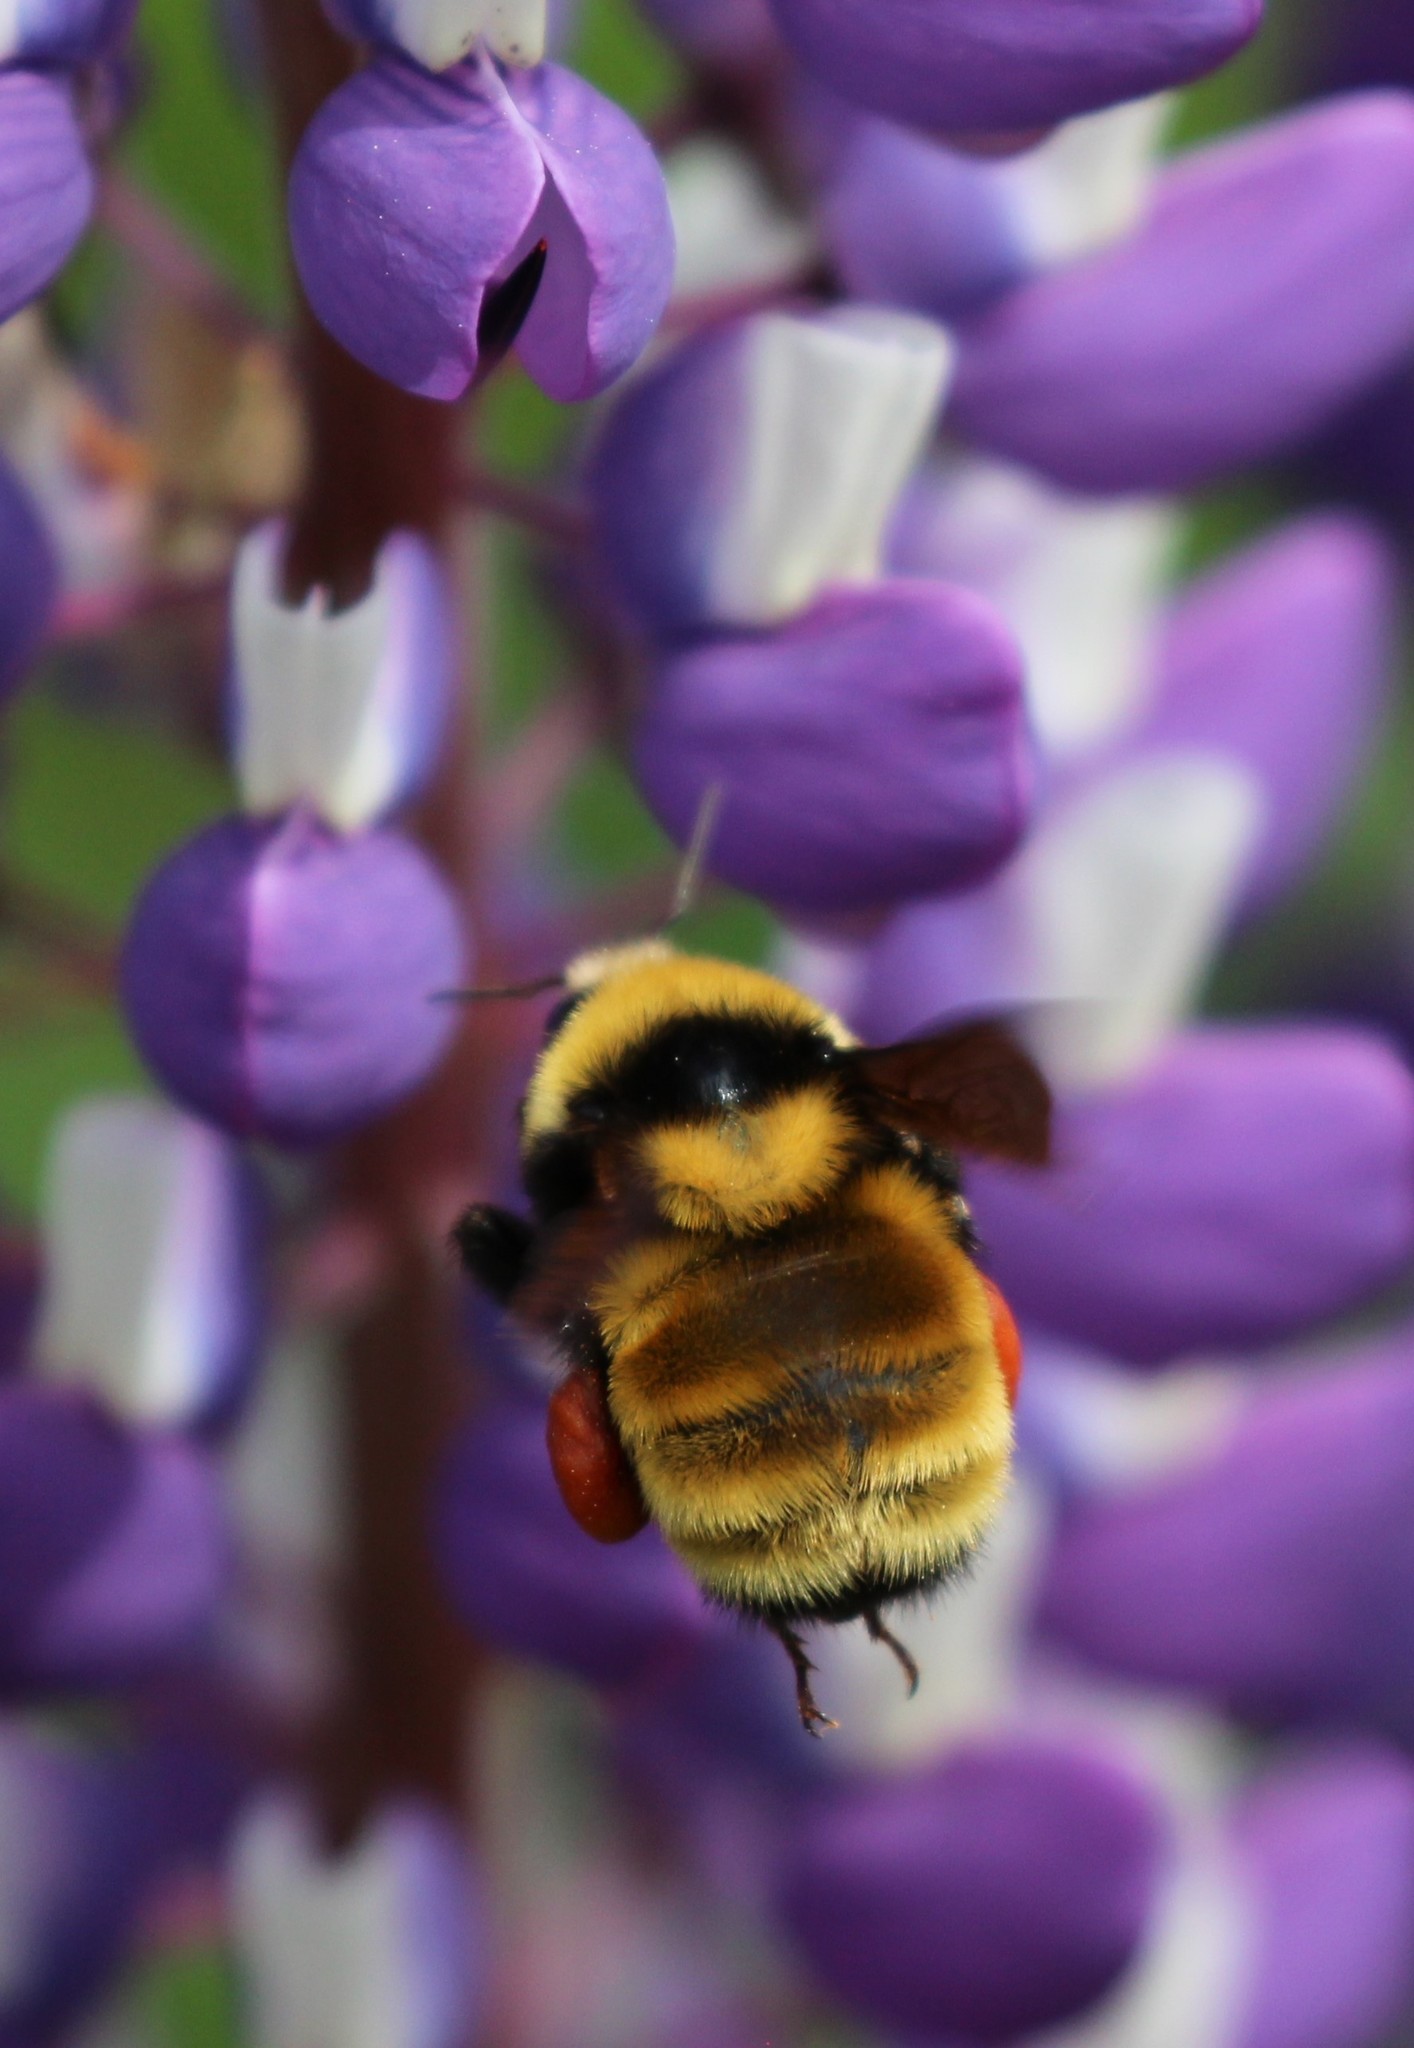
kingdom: Animalia
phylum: Arthropoda
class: Insecta
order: Hymenoptera
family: Apidae
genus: Bombus
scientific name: Bombus borealis
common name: Northern amber bumble bee
